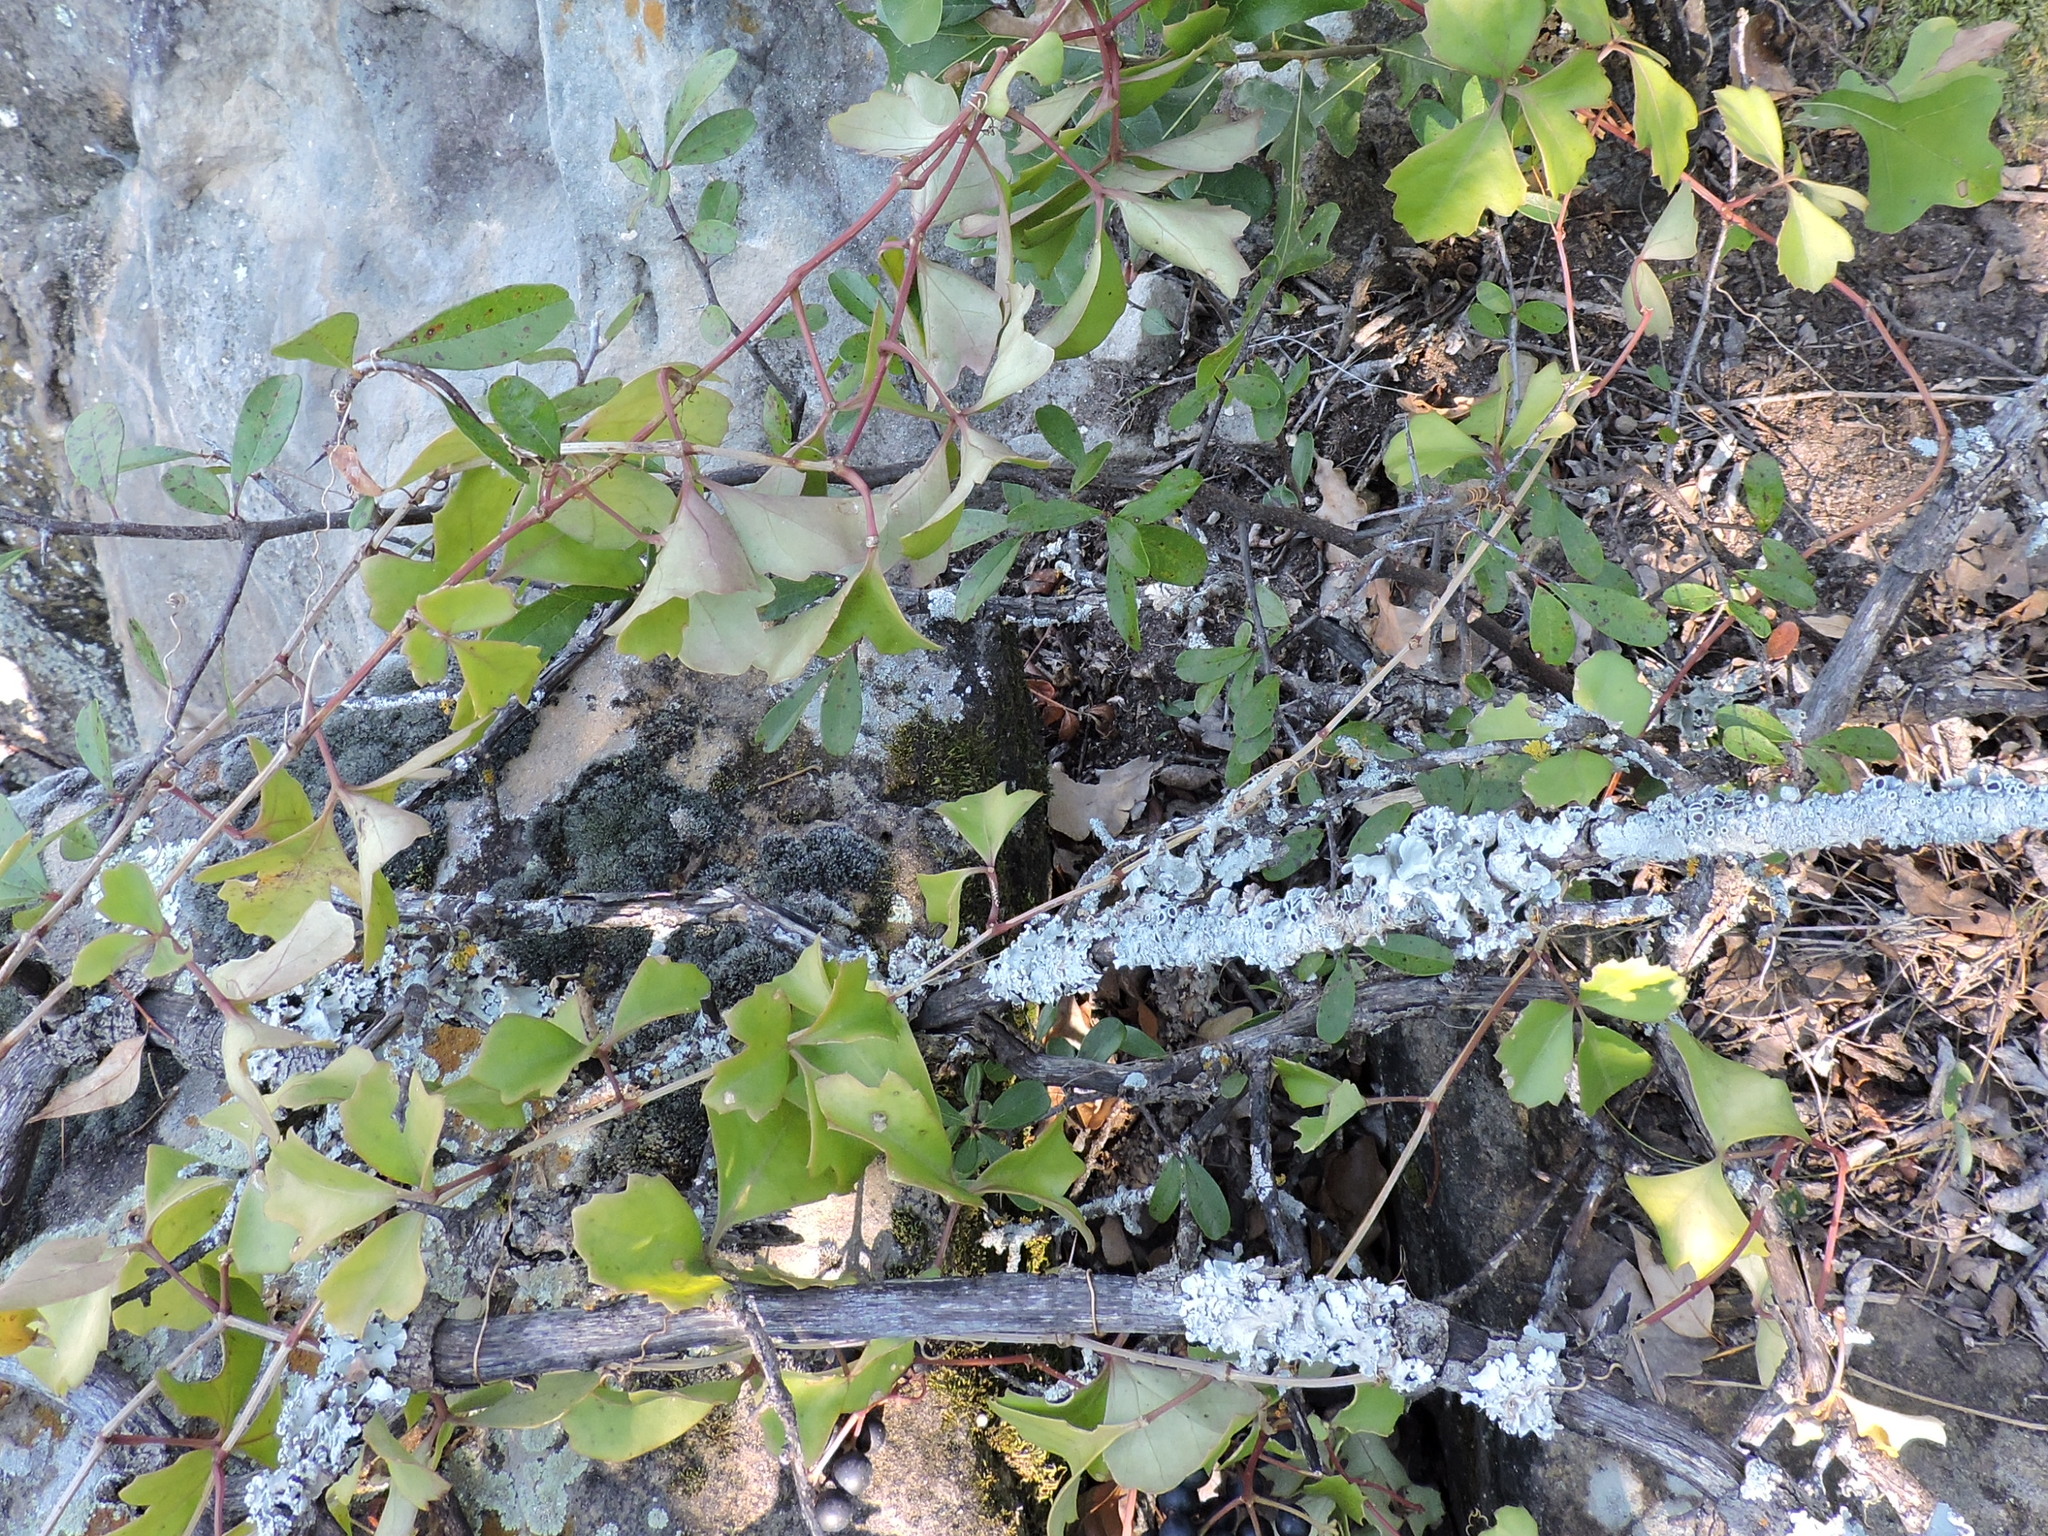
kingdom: Plantae
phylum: Tracheophyta
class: Magnoliopsida
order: Vitales
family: Vitaceae
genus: Cissus
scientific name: Cissus trifoliata
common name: Vine-sorrel
